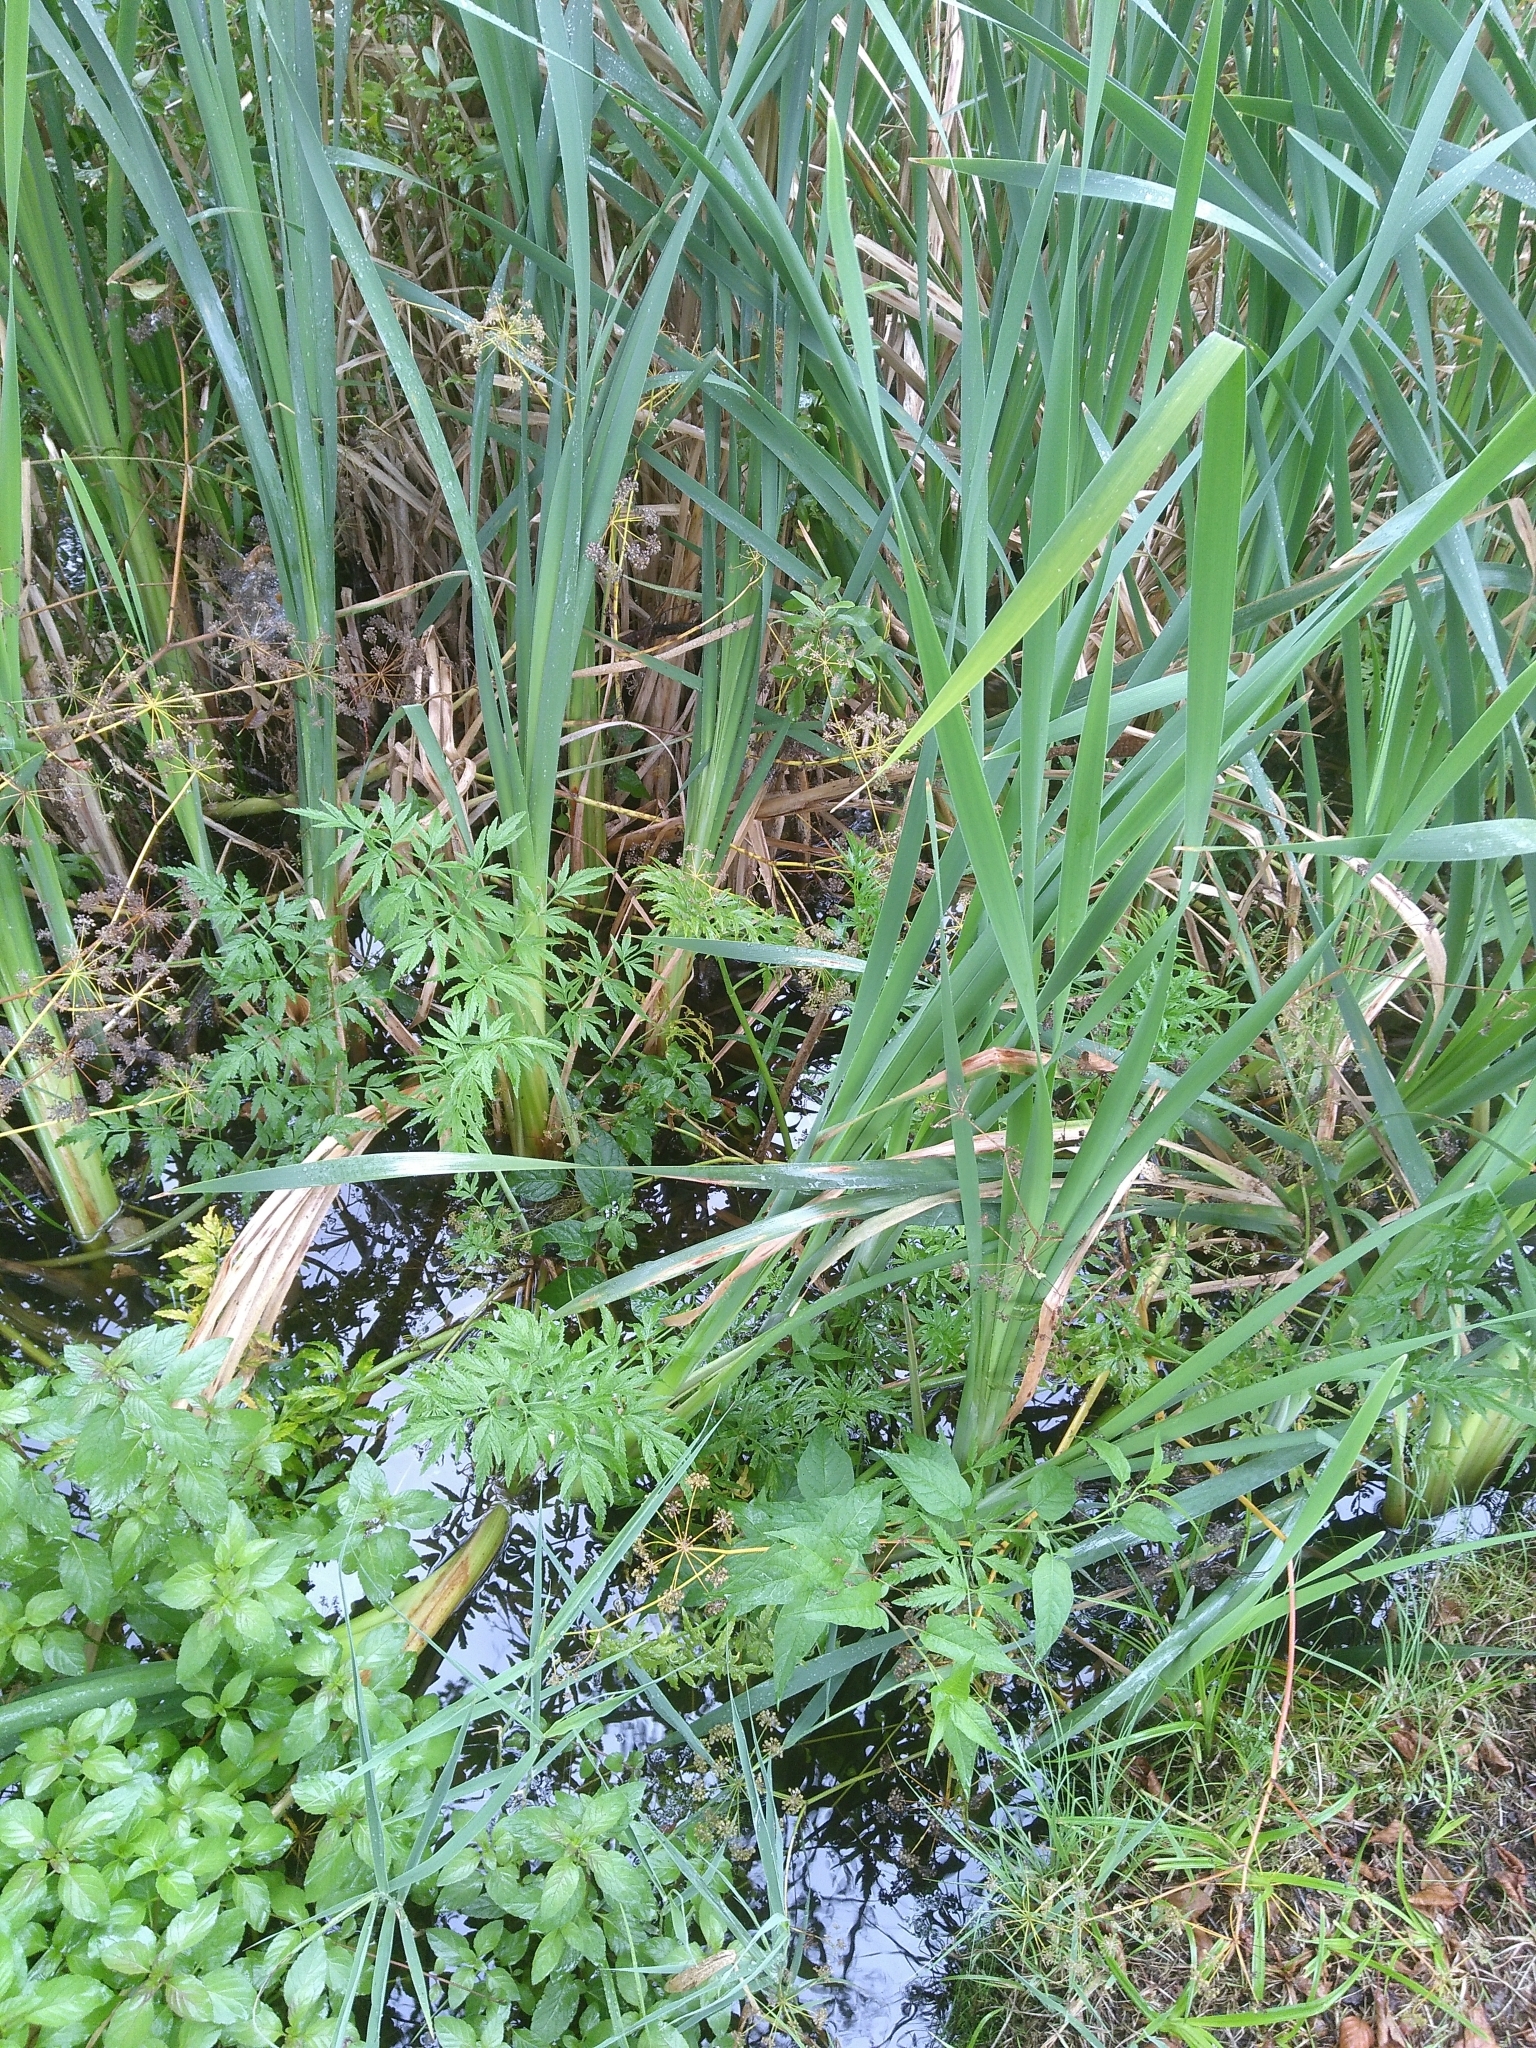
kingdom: Plantae
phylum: Tracheophyta
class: Magnoliopsida
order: Apiales
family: Apiaceae
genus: Cicuta
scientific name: Cicuta virosa
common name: Cowbane
